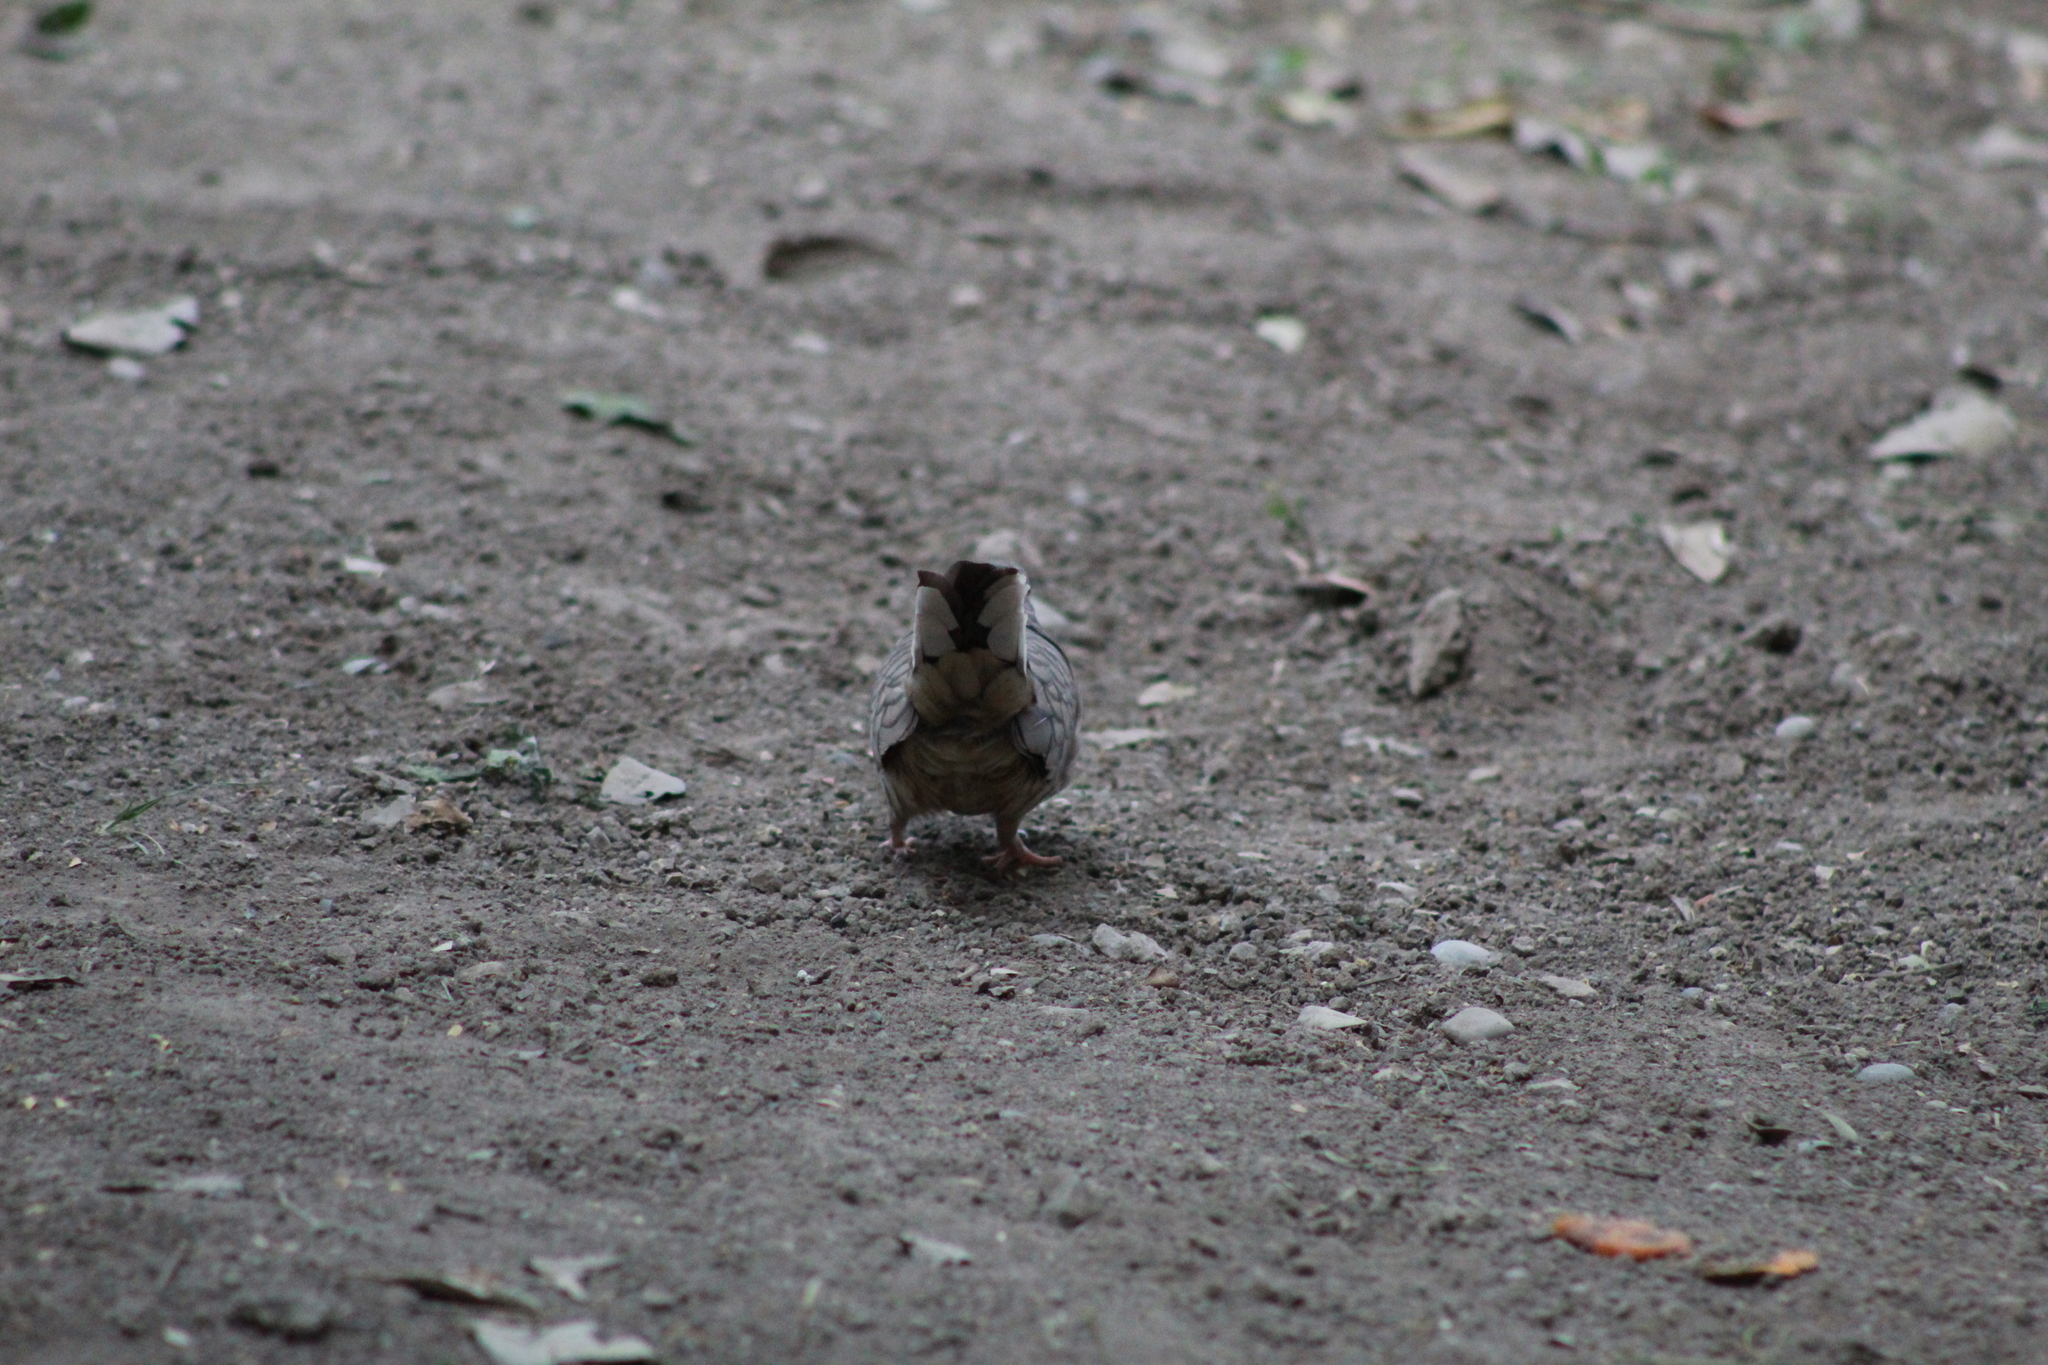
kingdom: Animalia
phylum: Chordata
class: Aves
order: Columbiformes
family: Columbidae
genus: Columbina
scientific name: Columbina inca
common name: Inca dove
